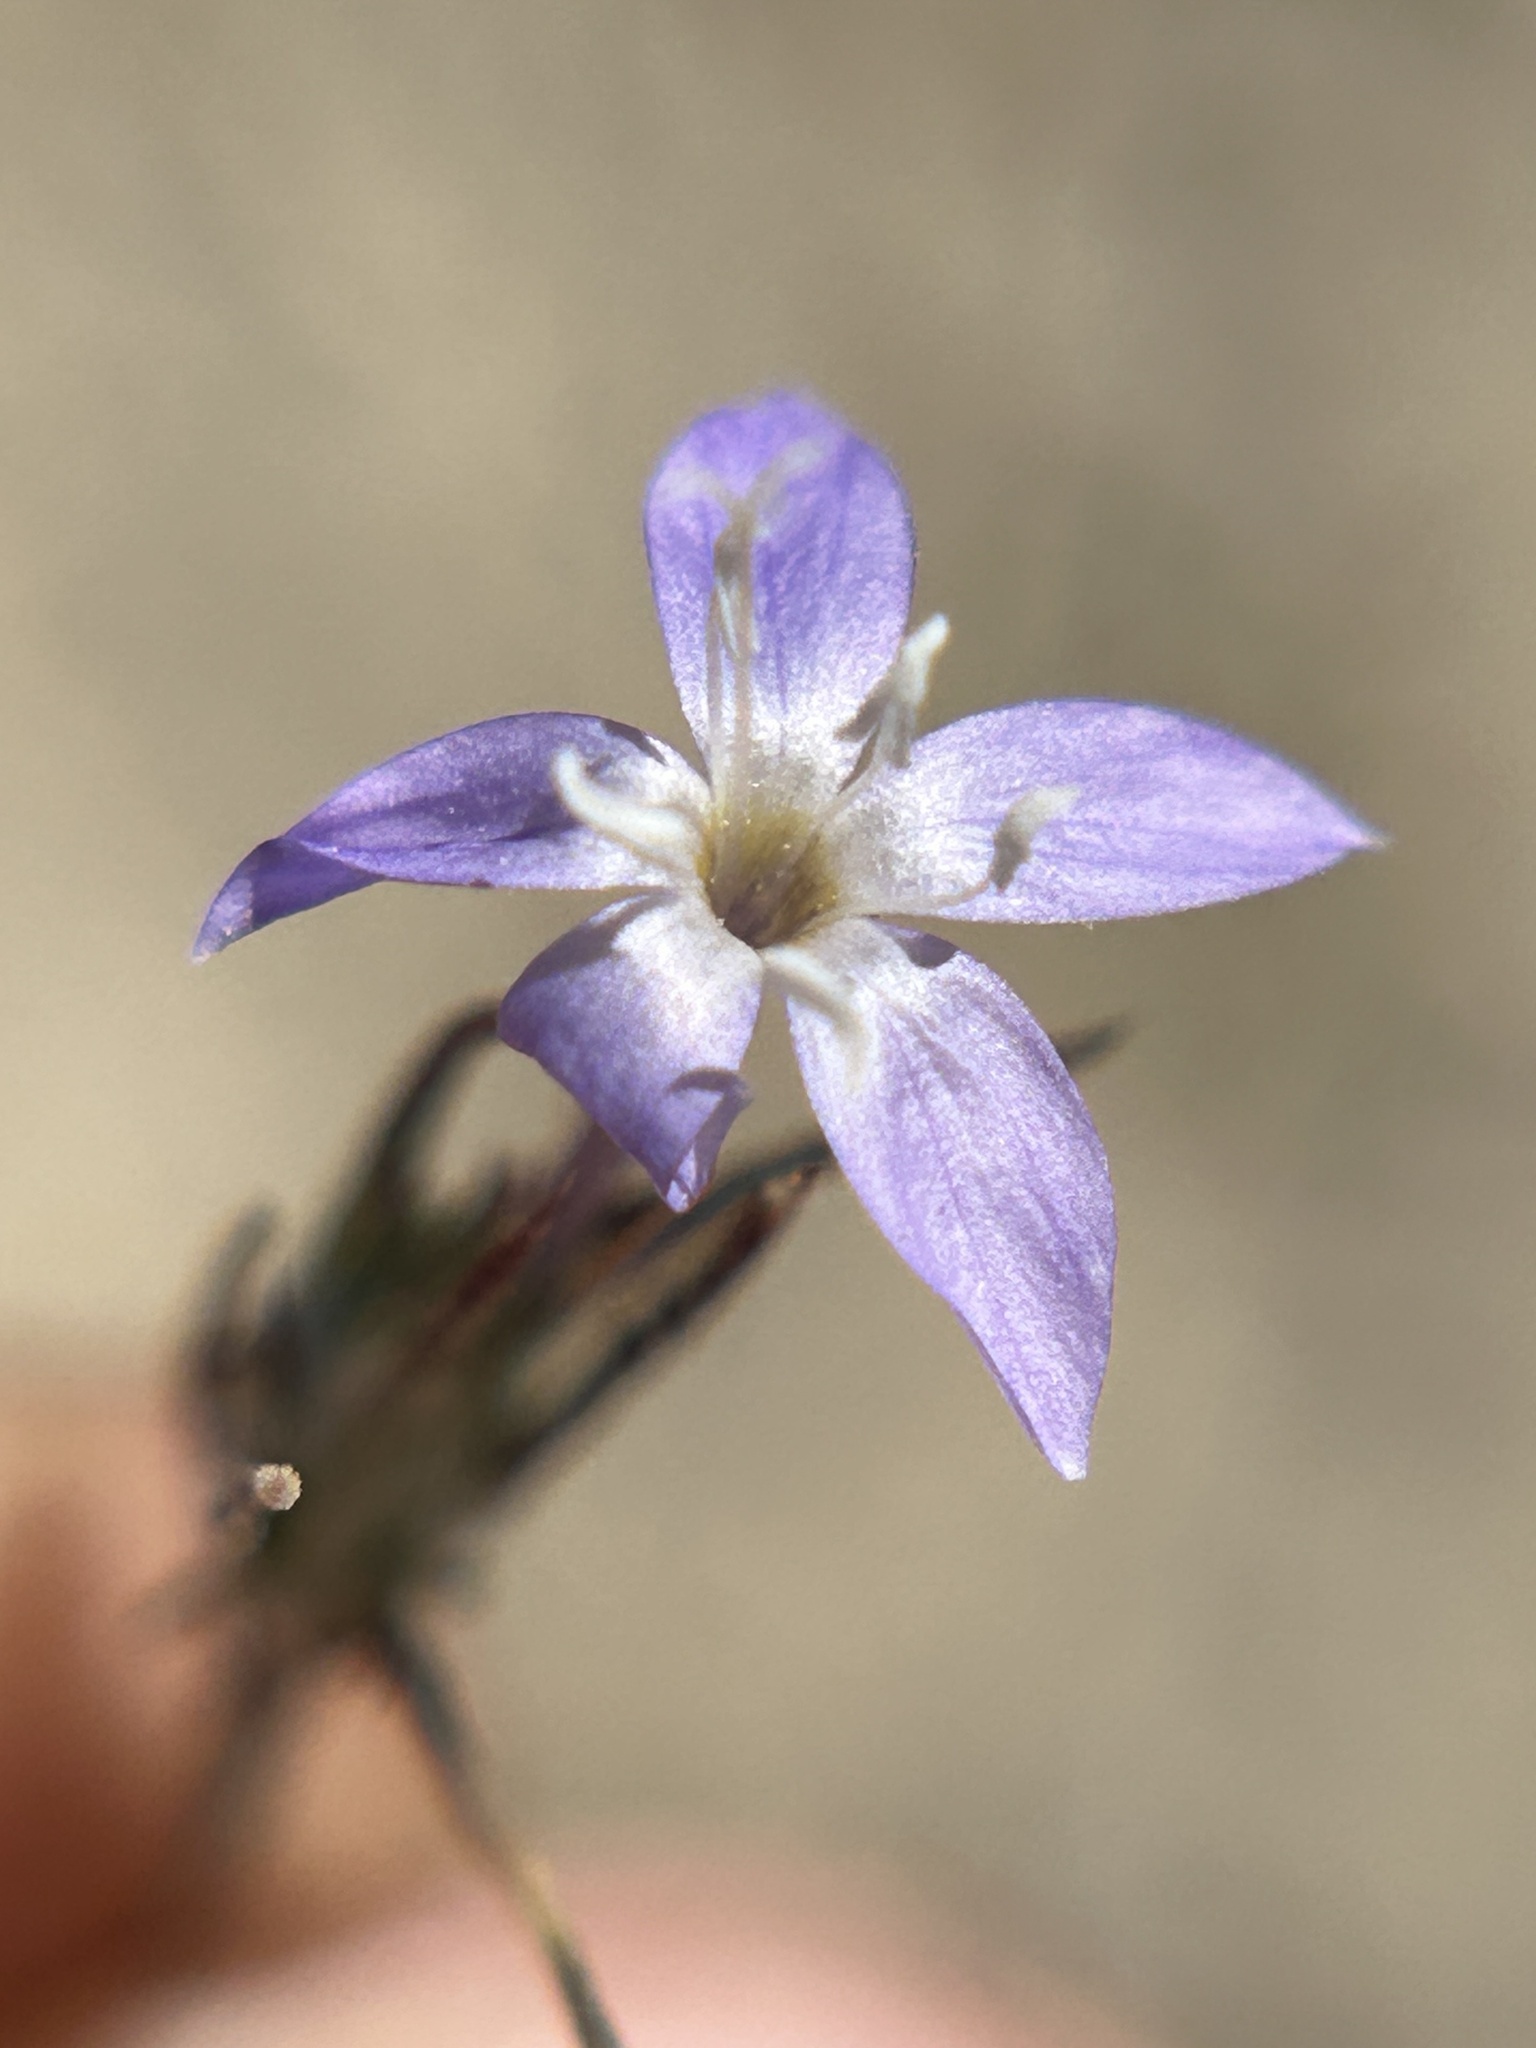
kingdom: Plantae
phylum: Tracheophyta
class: Magnoliopsida
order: Ericales
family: Polemoniaceae
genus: Eriastrum
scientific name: Eriastrum pluriflorum
